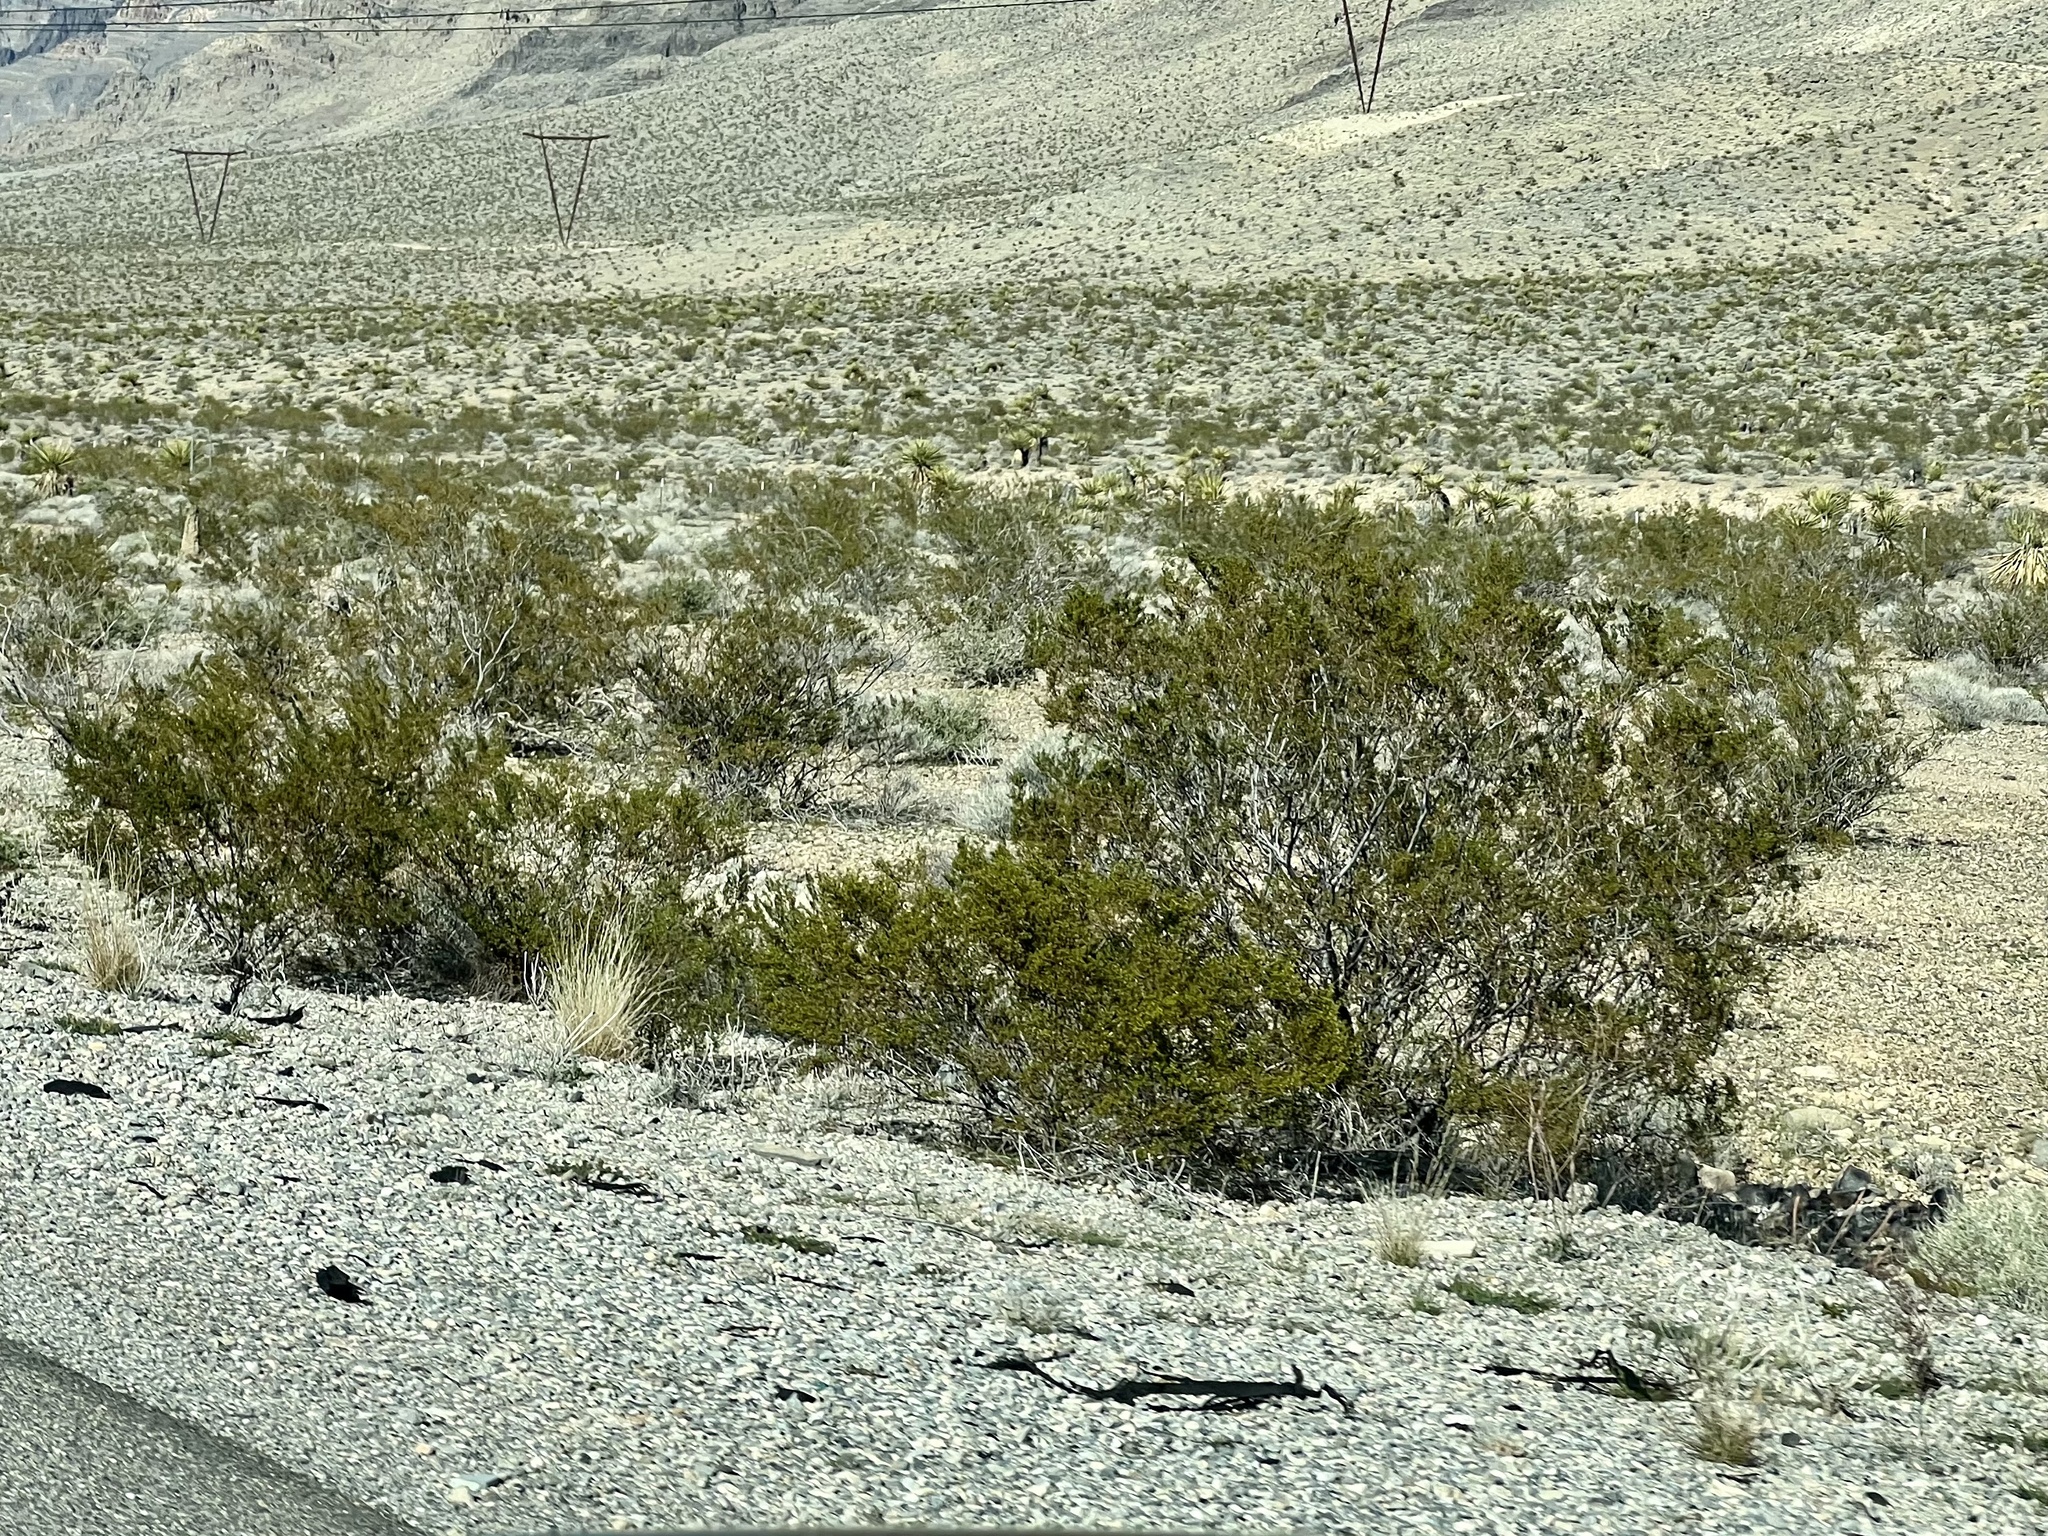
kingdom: Plantae
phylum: Tracheophyta
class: Magnoliopsida
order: Zygophyllales
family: Zygophyllaceae
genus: Larrea
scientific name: Larrea tridentata
